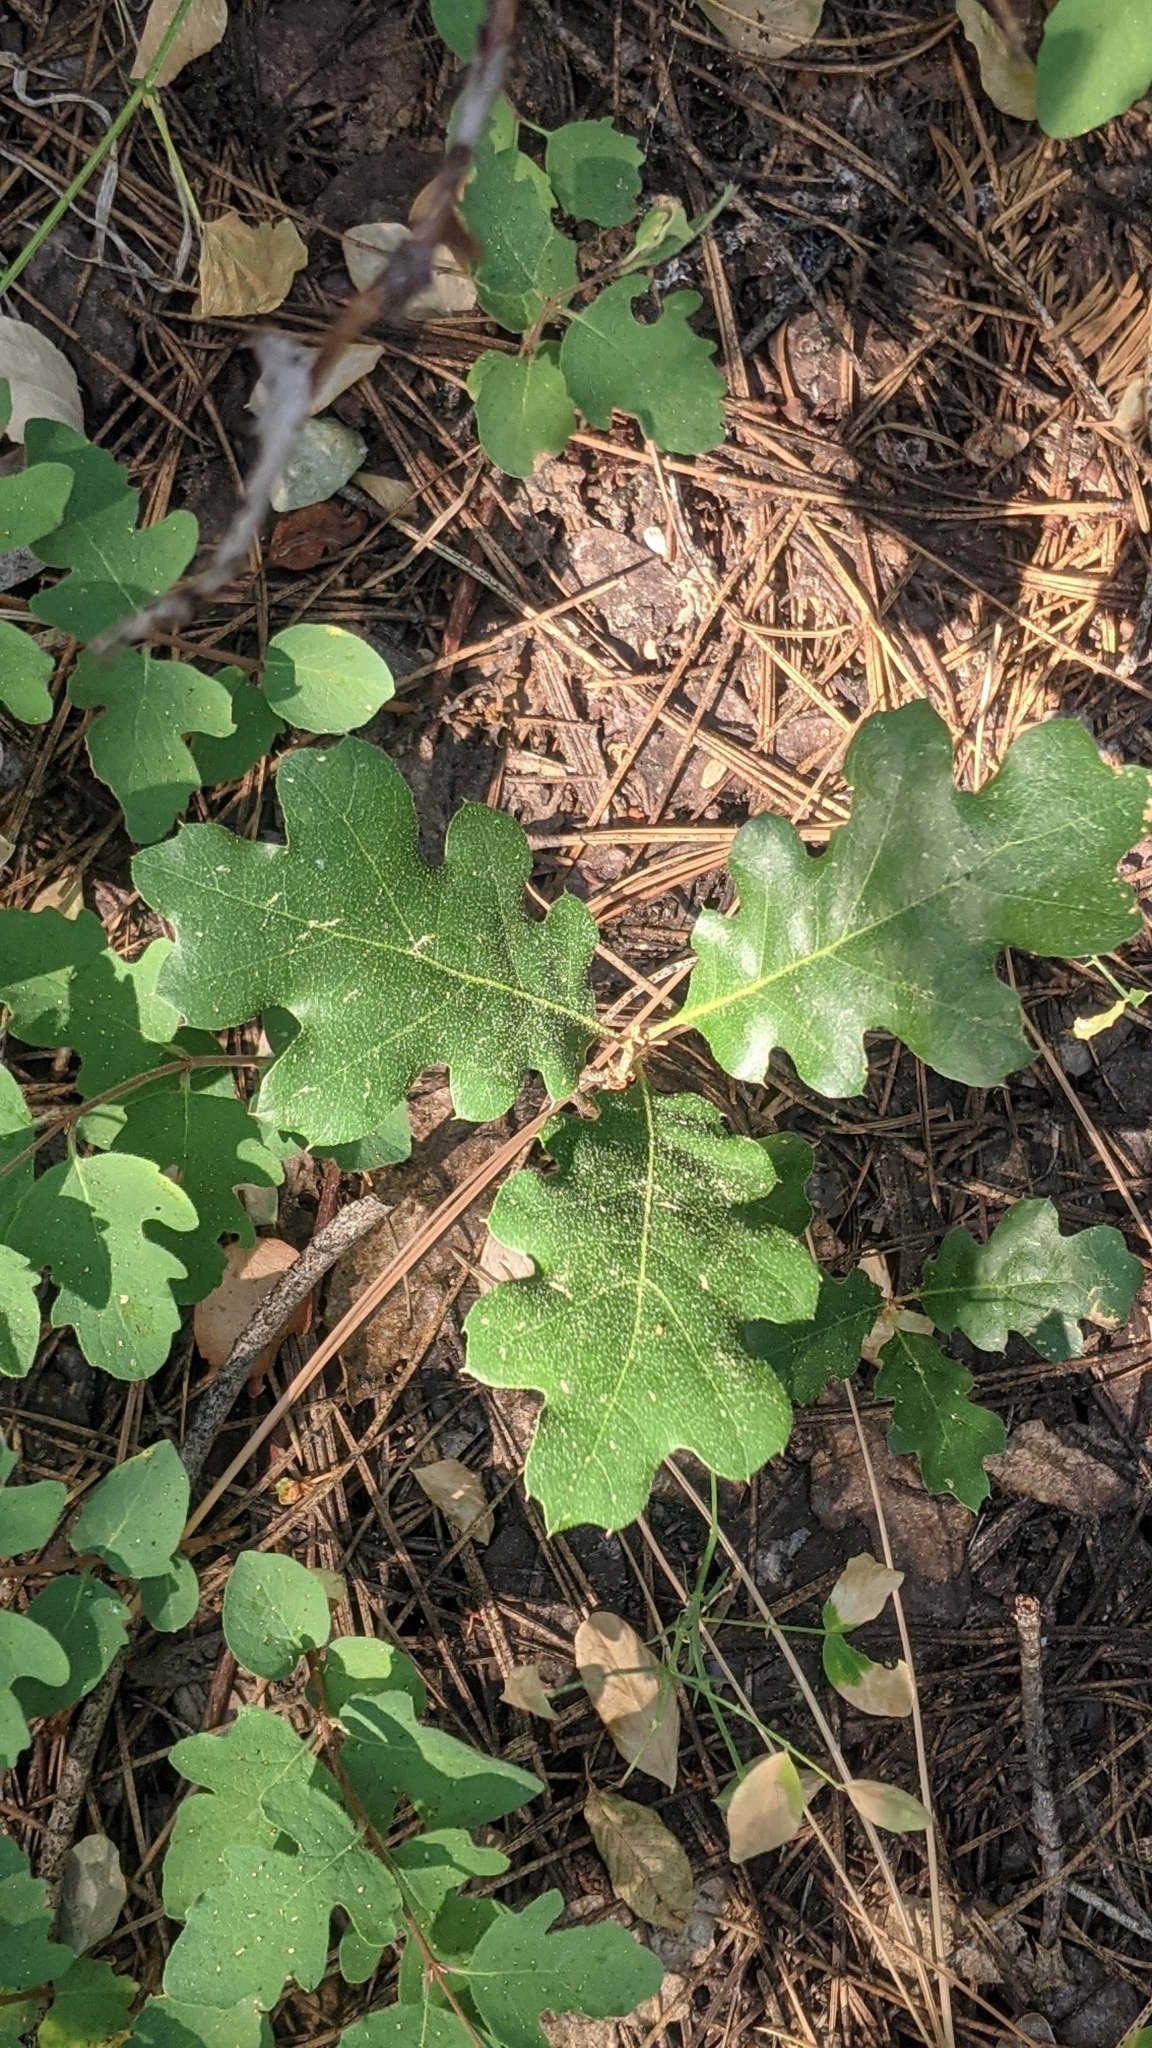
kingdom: Plantae
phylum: Tracheophyta
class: Magnoliopsida
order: Fagales
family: Fagaceae
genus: Quercus
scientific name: Quercus kelloggii
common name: California black oak
